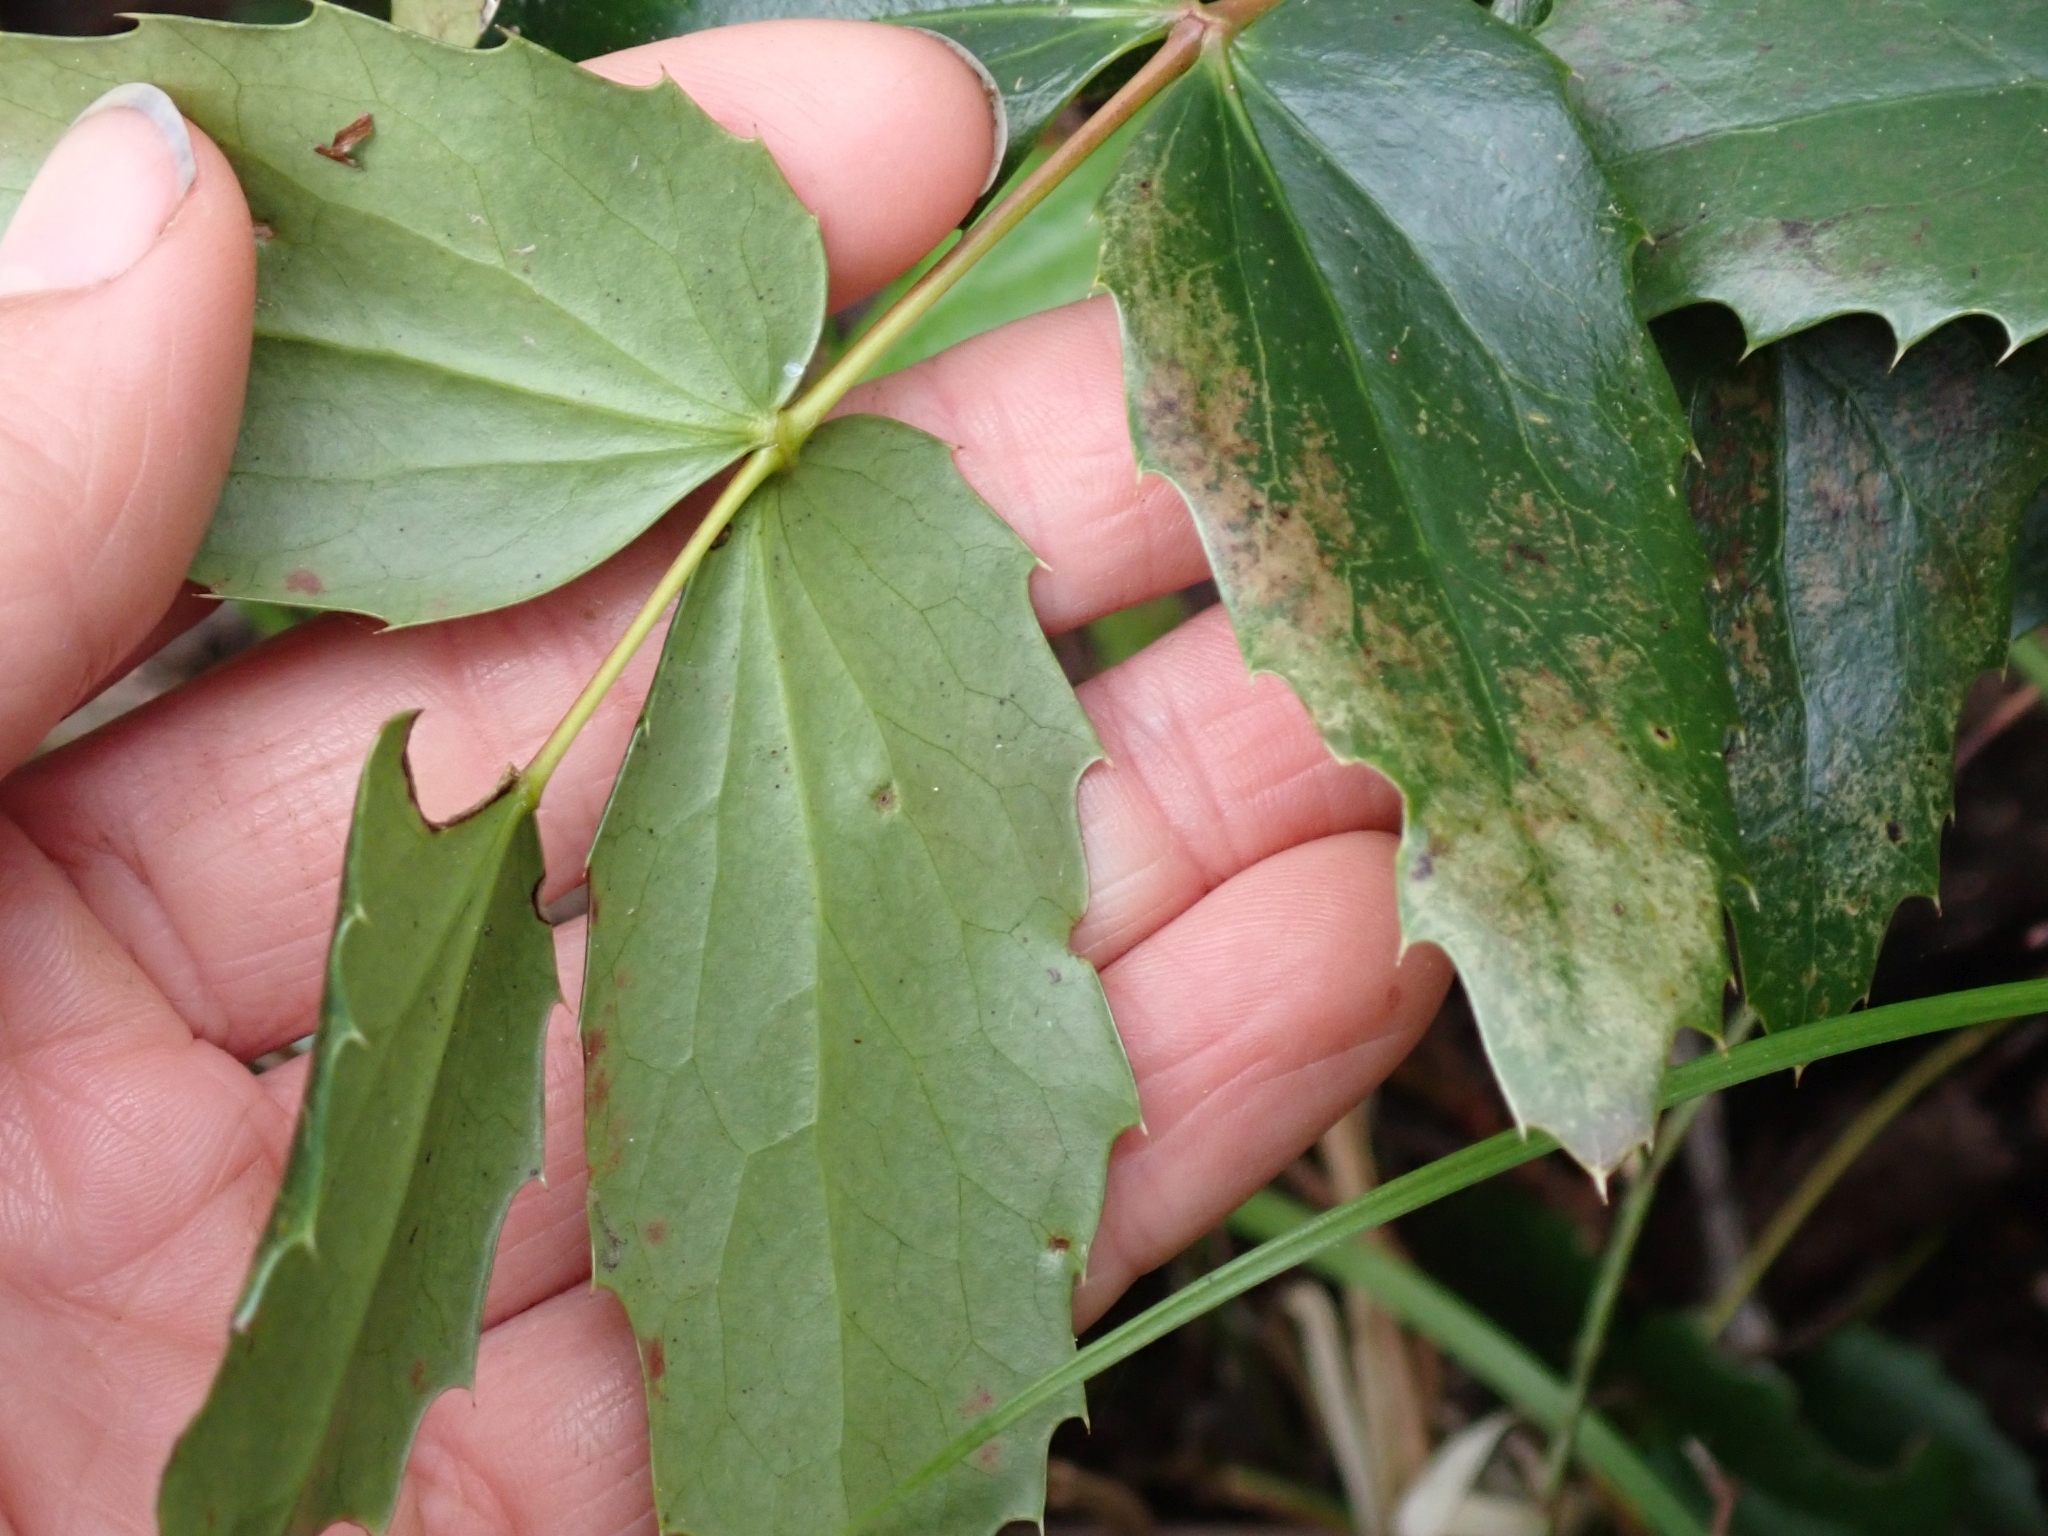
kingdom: Plantae
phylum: Tracheophyta
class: Magnoliopsida
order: Ranunculales
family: Berberidaceae
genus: Mahonia
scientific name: Mahonia nervosa
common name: Cascade oregon-grape
